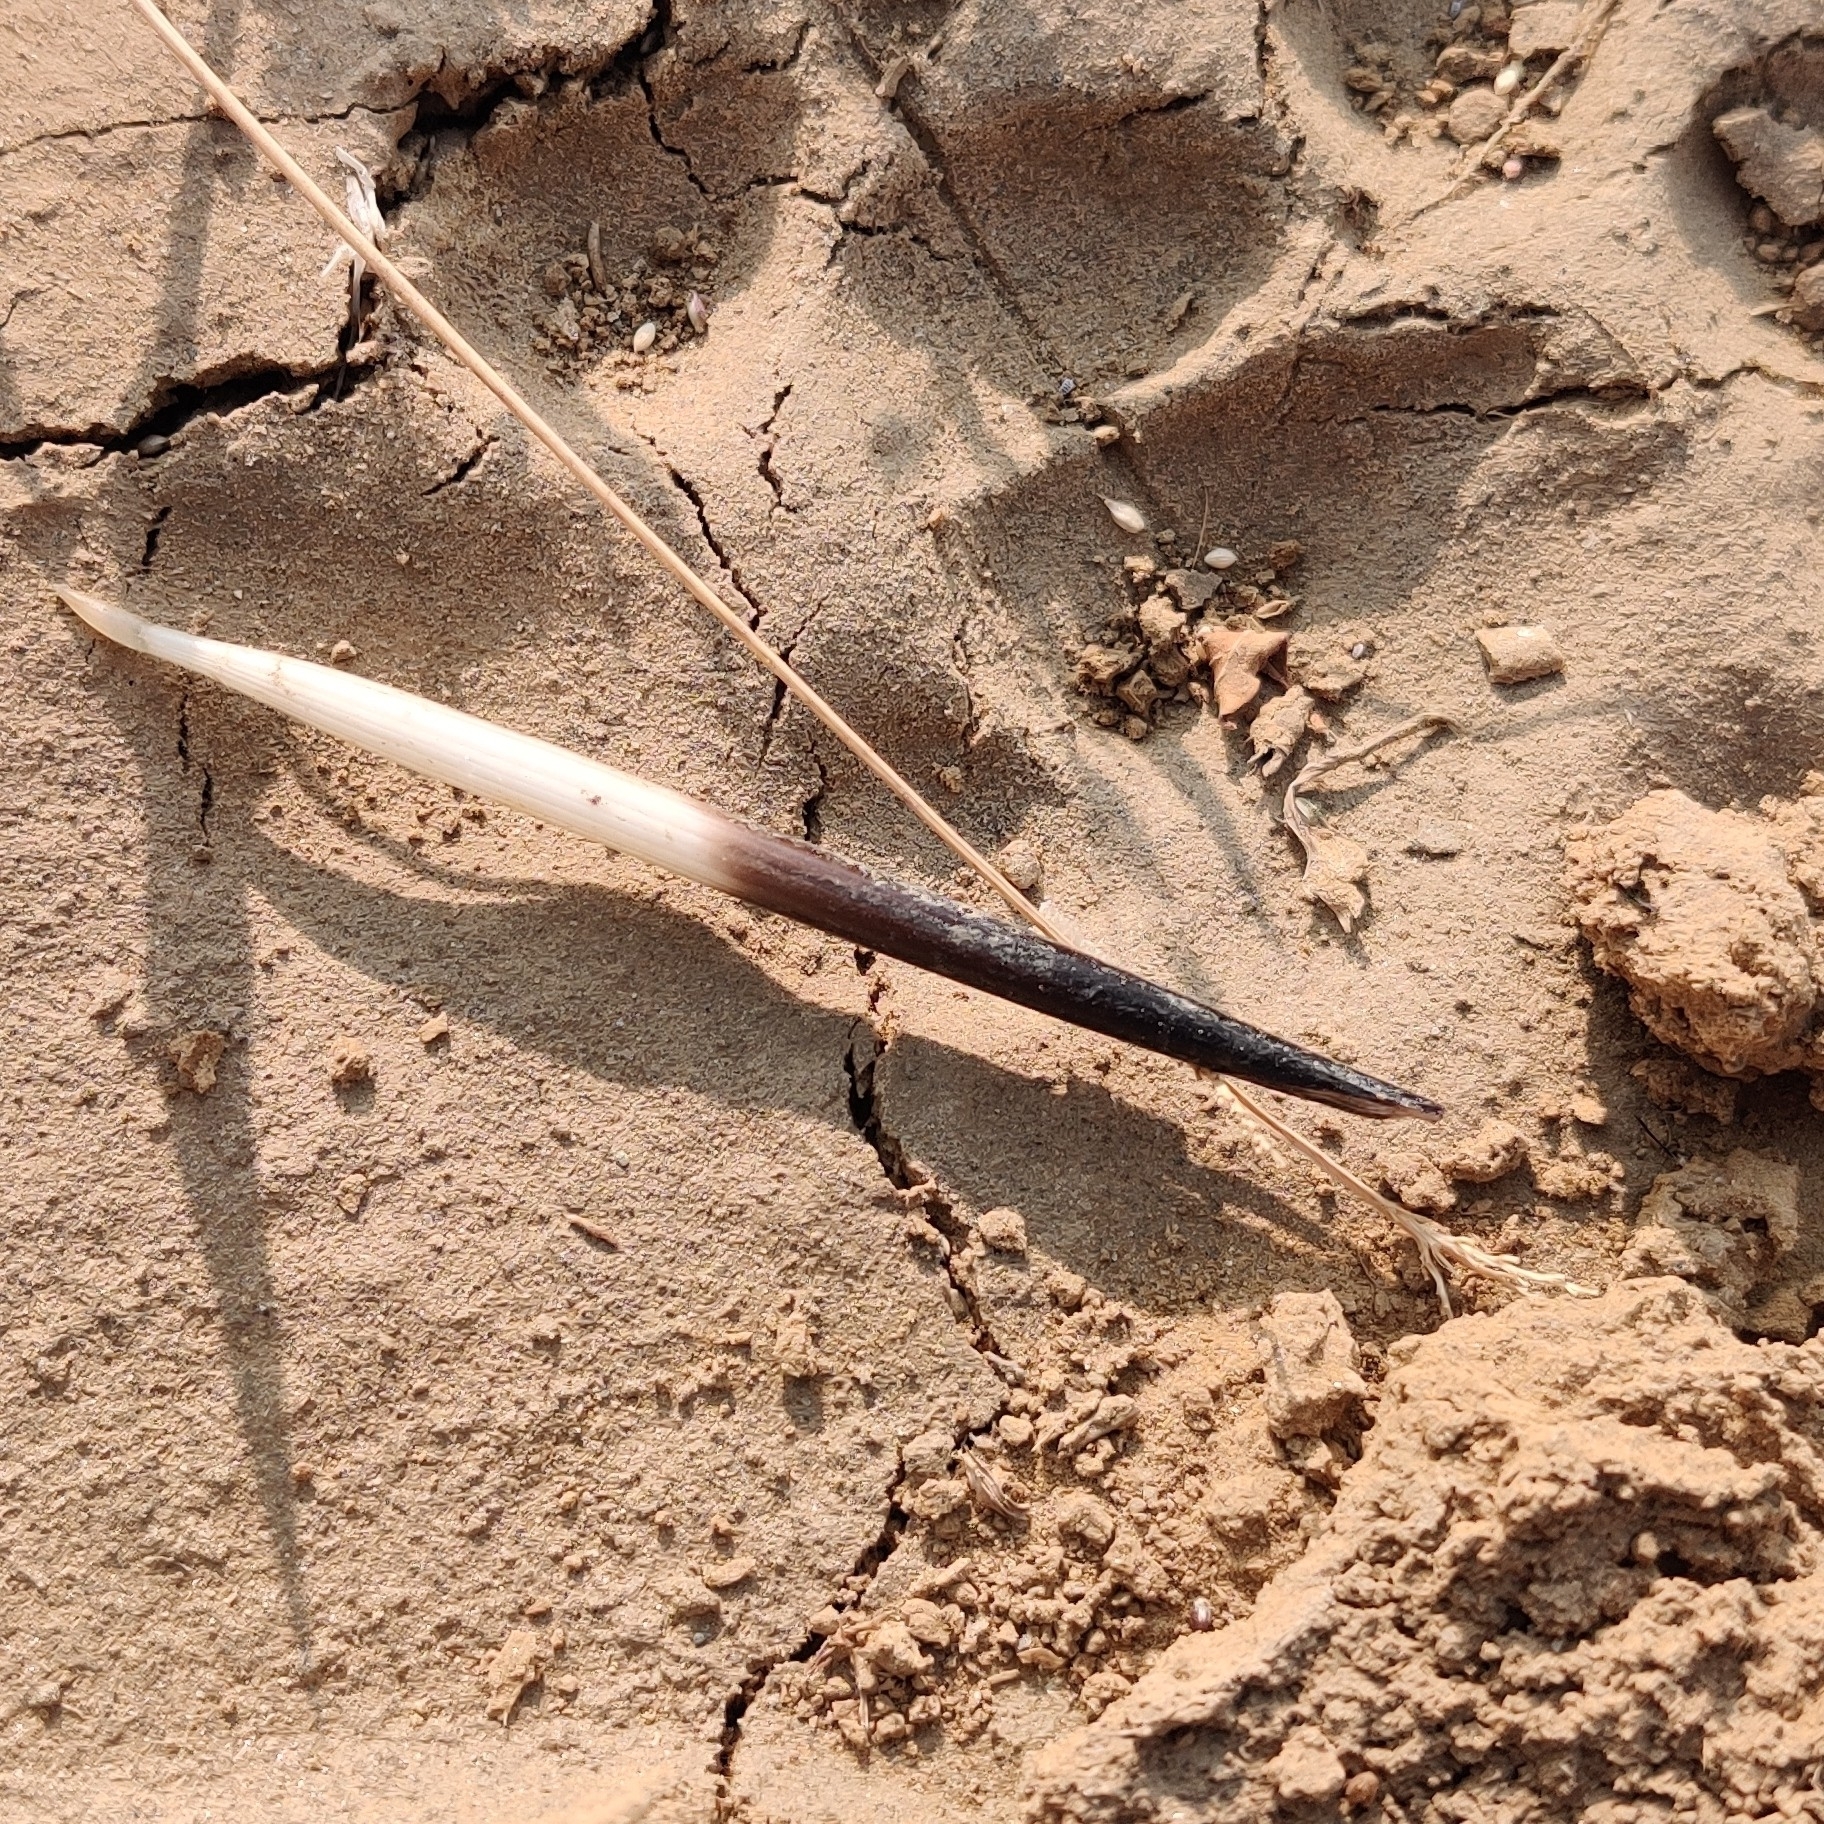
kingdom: Animalia
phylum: Chordata
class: Mammalia
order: Rodentia
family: Hystricidae
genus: Hystrix
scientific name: Hystrix indica
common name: Indian crested porcupine
